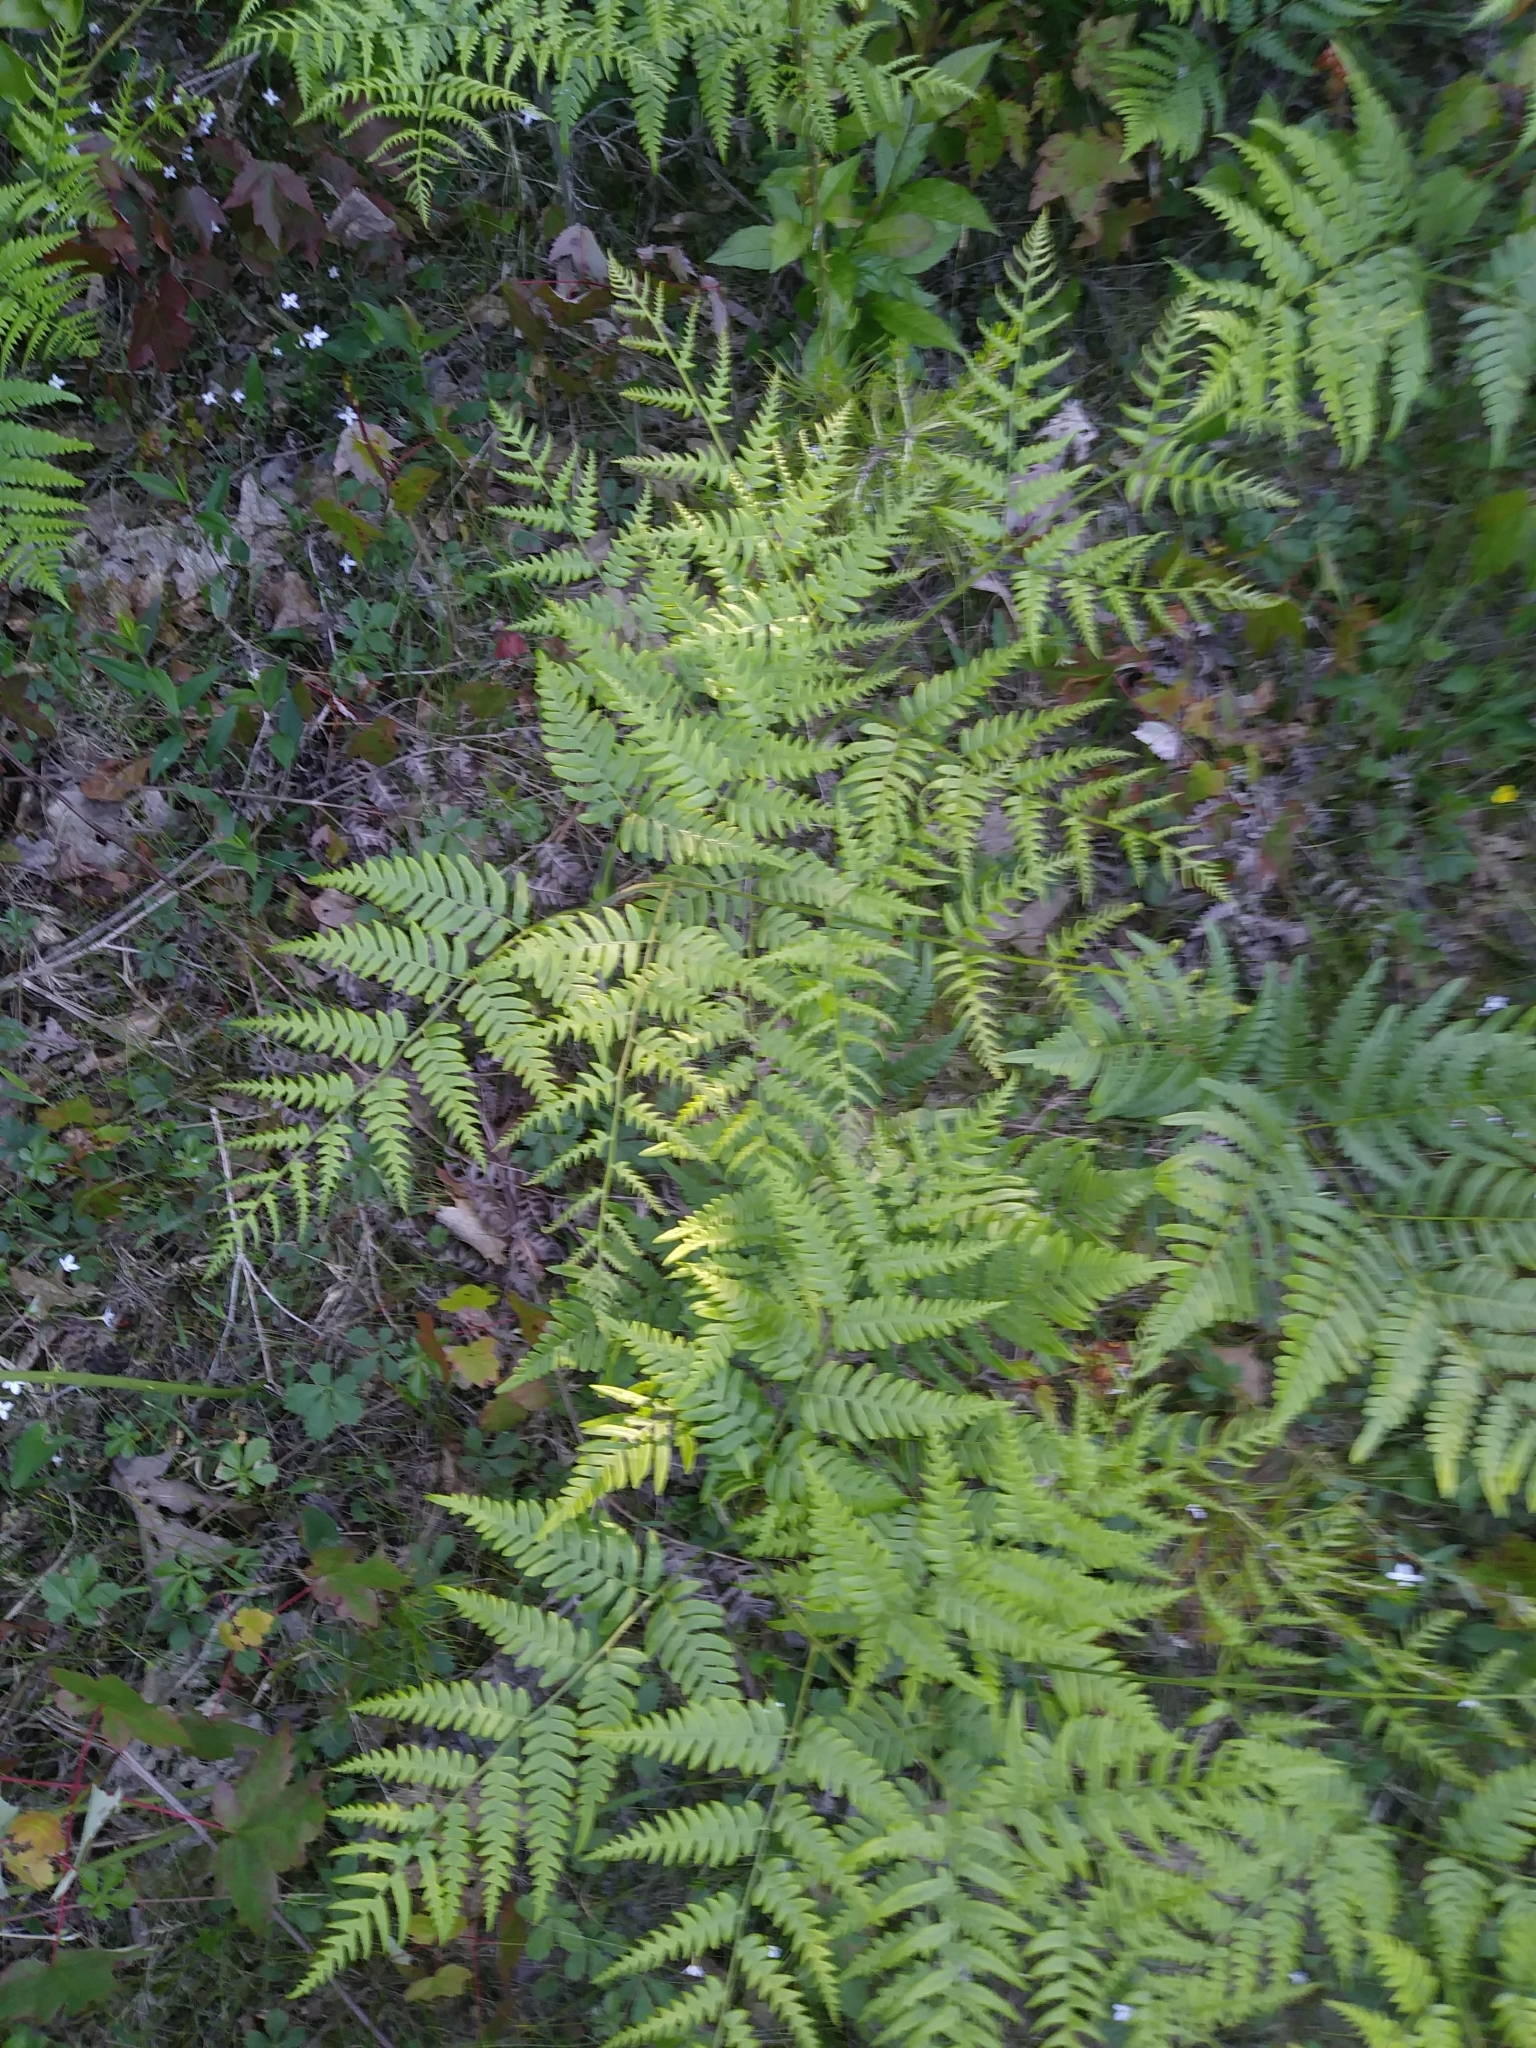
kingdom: Plantae
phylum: Tracheophyta
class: Polypodiopsida
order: Polypodiales
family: Dennstaedtiaceae
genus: Pteridium
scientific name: Pteridium aquilinum
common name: Bracken
